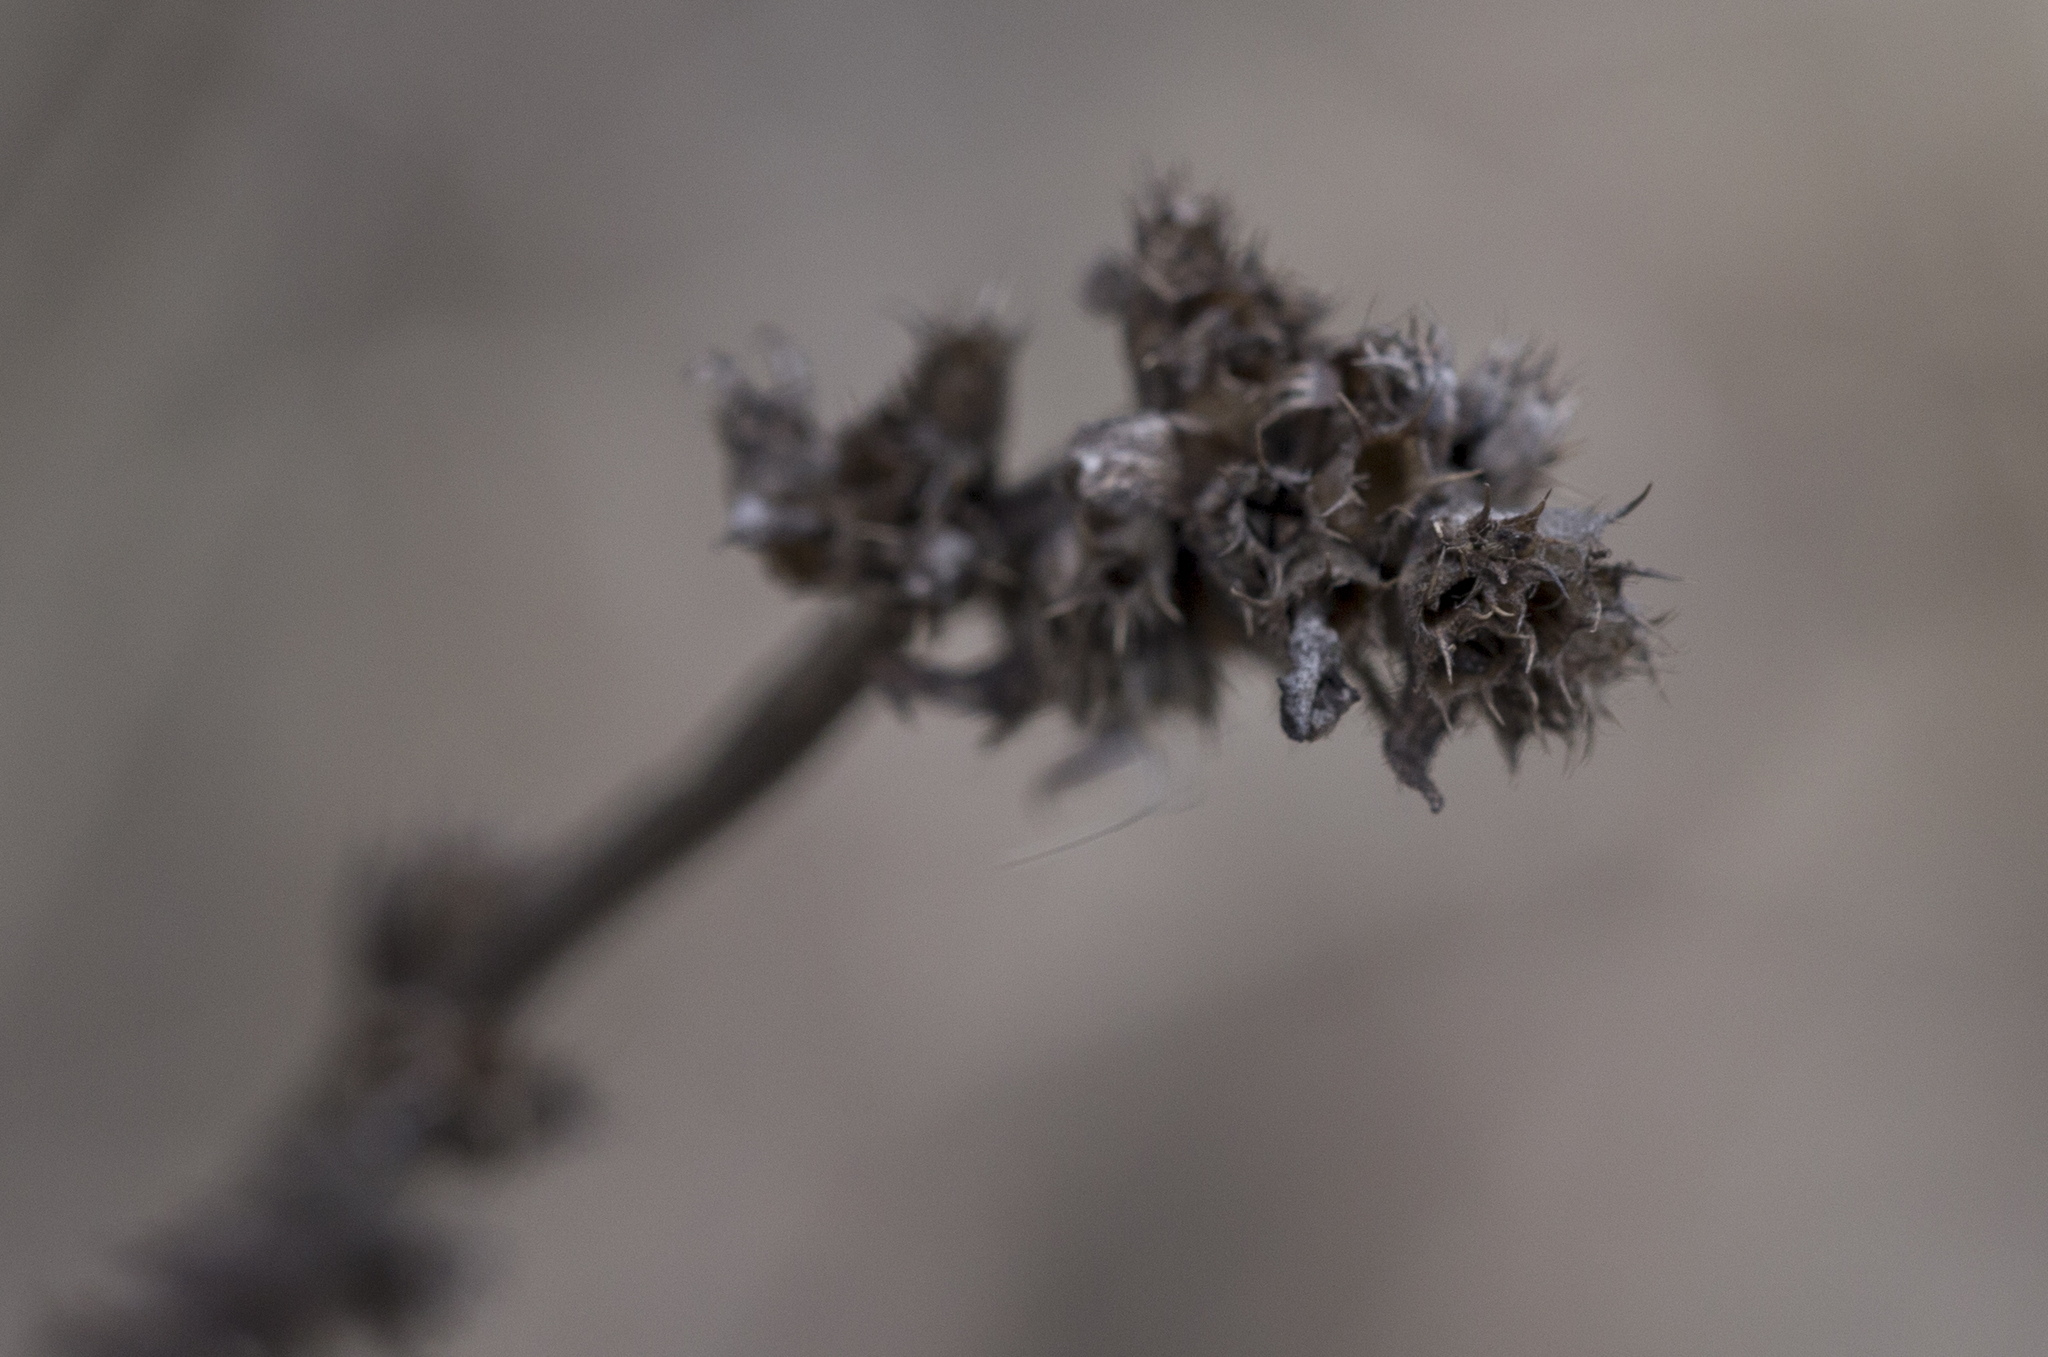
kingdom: Plantae
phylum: Tracheophyta
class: Magnoliopsida
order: Lamiales
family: Lamiaceae
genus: Betonica
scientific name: Betonica officinalis
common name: Bishop's-wort
